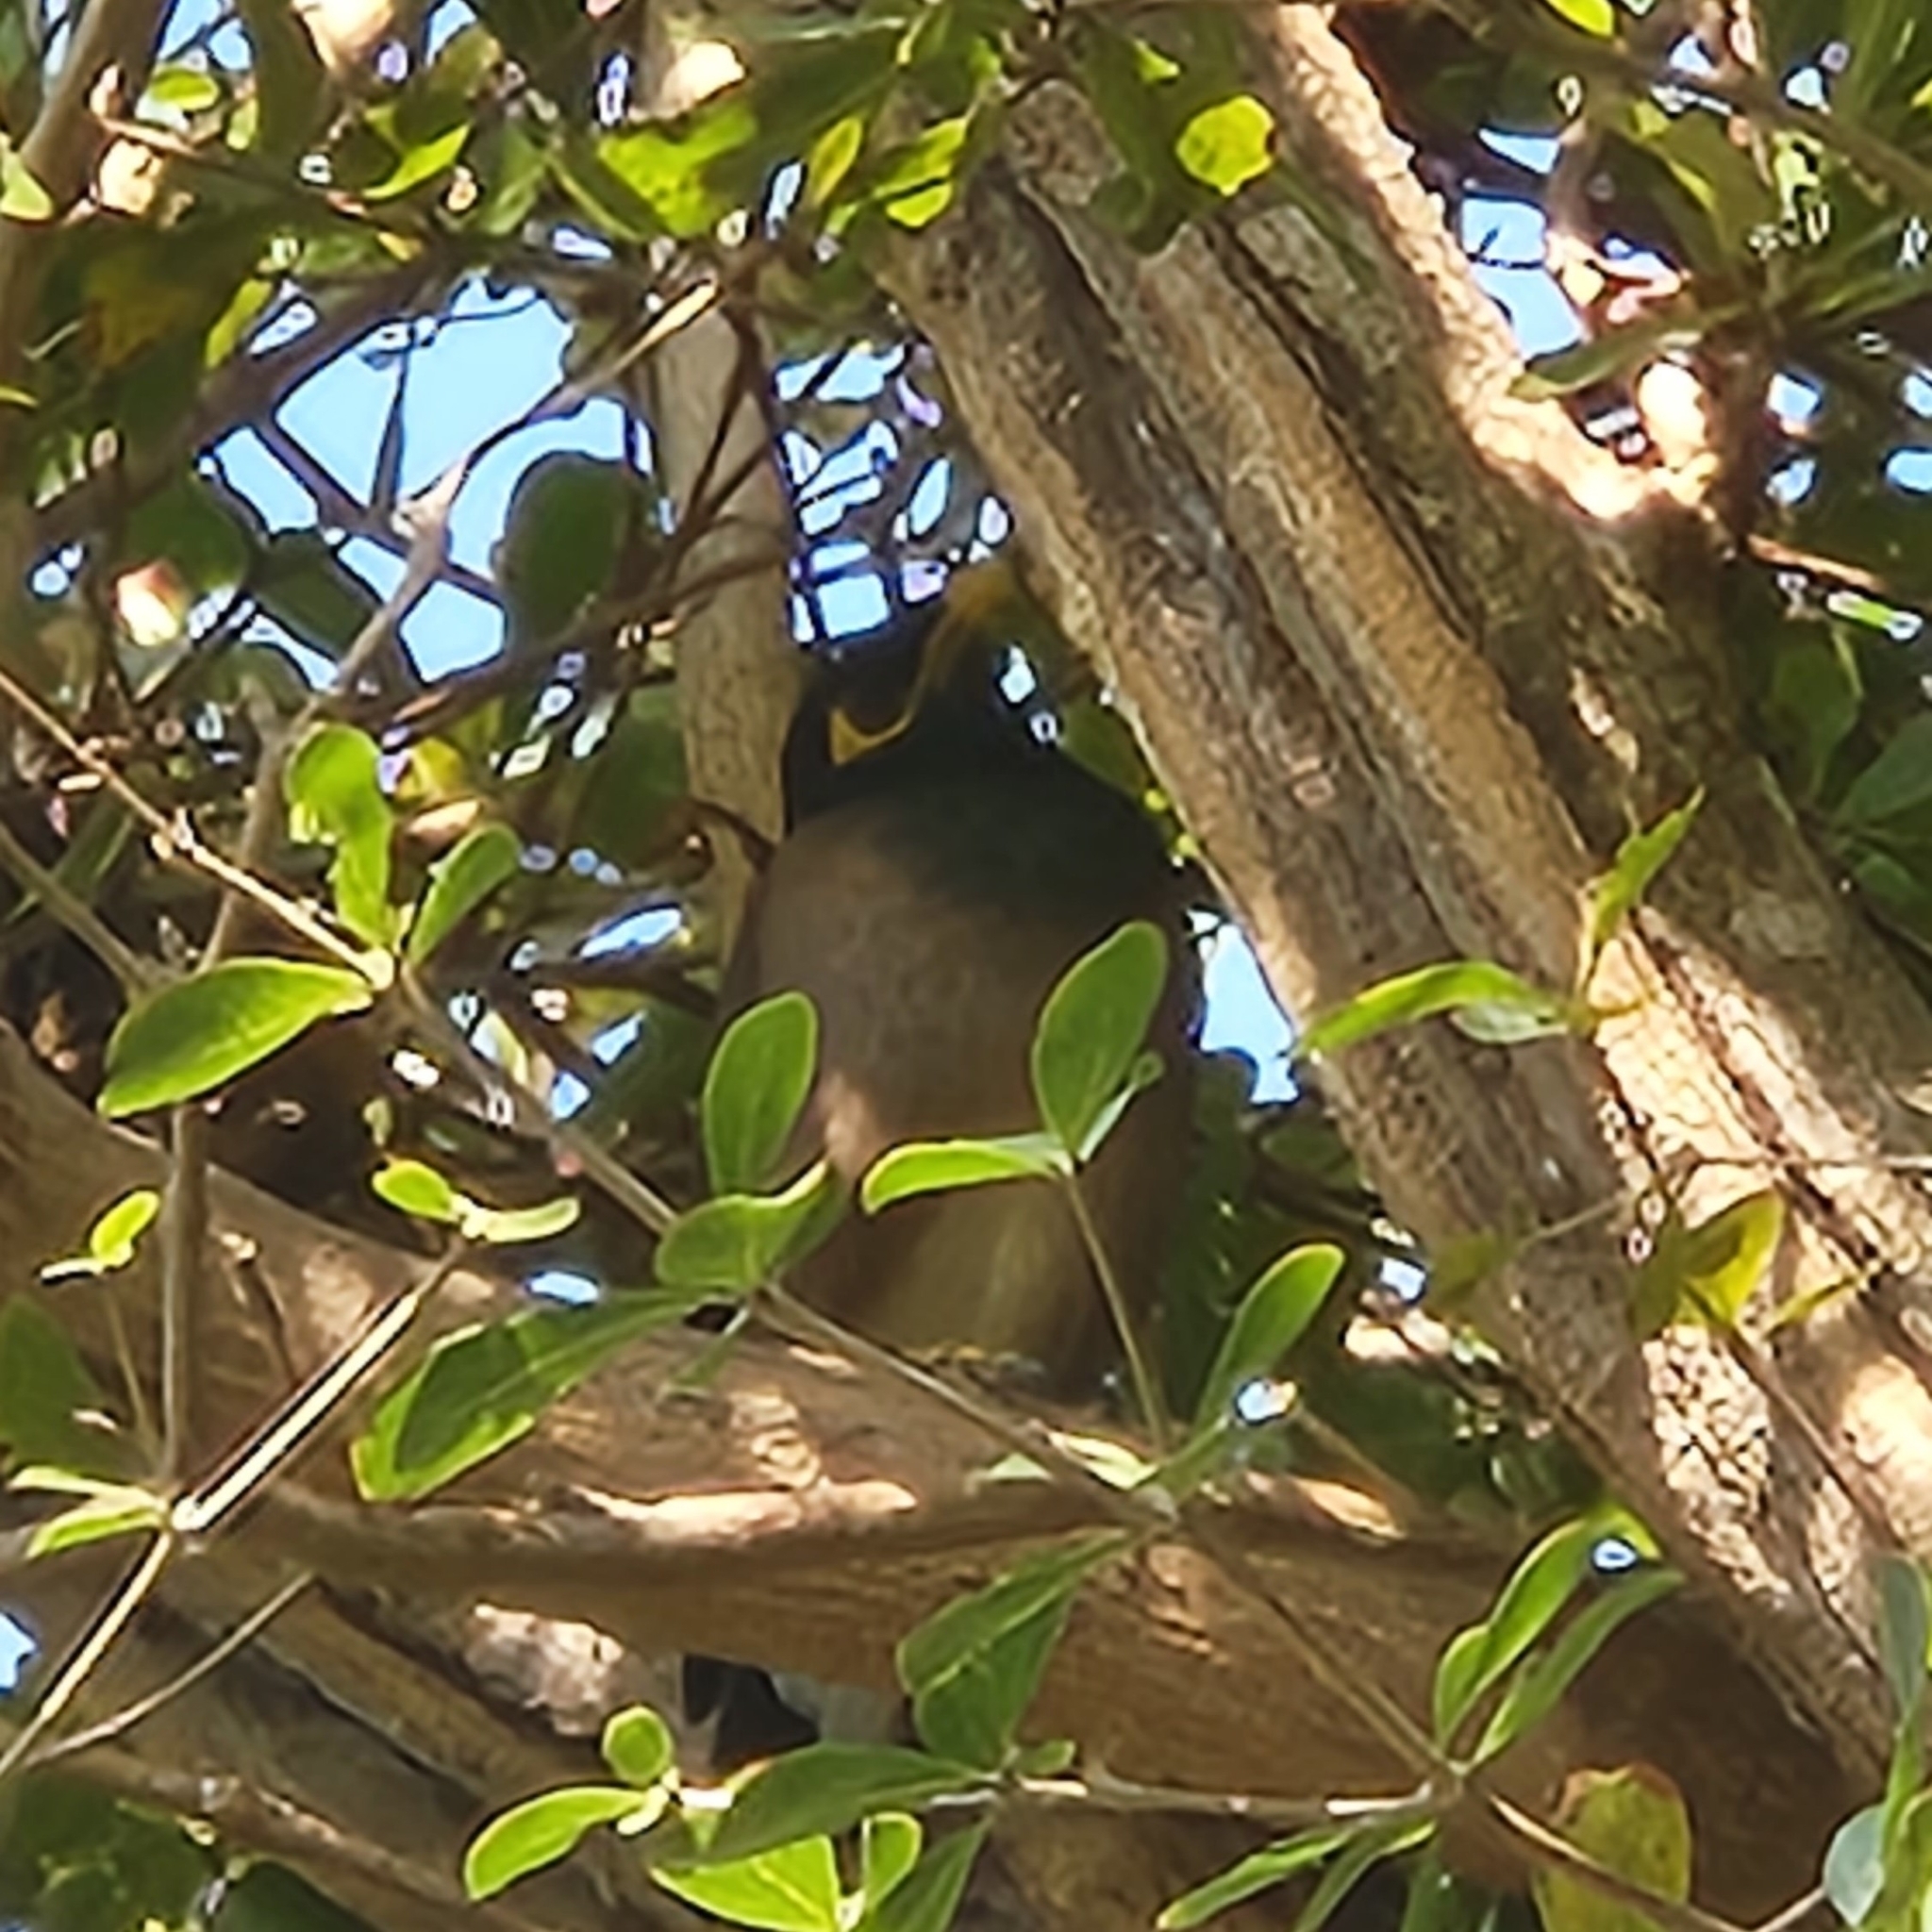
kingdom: Animalia
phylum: Chordata
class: Aves
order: Passeriformes
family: Sturnidae
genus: Acridotheres
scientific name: Acridotheres tristis
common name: Common myna
